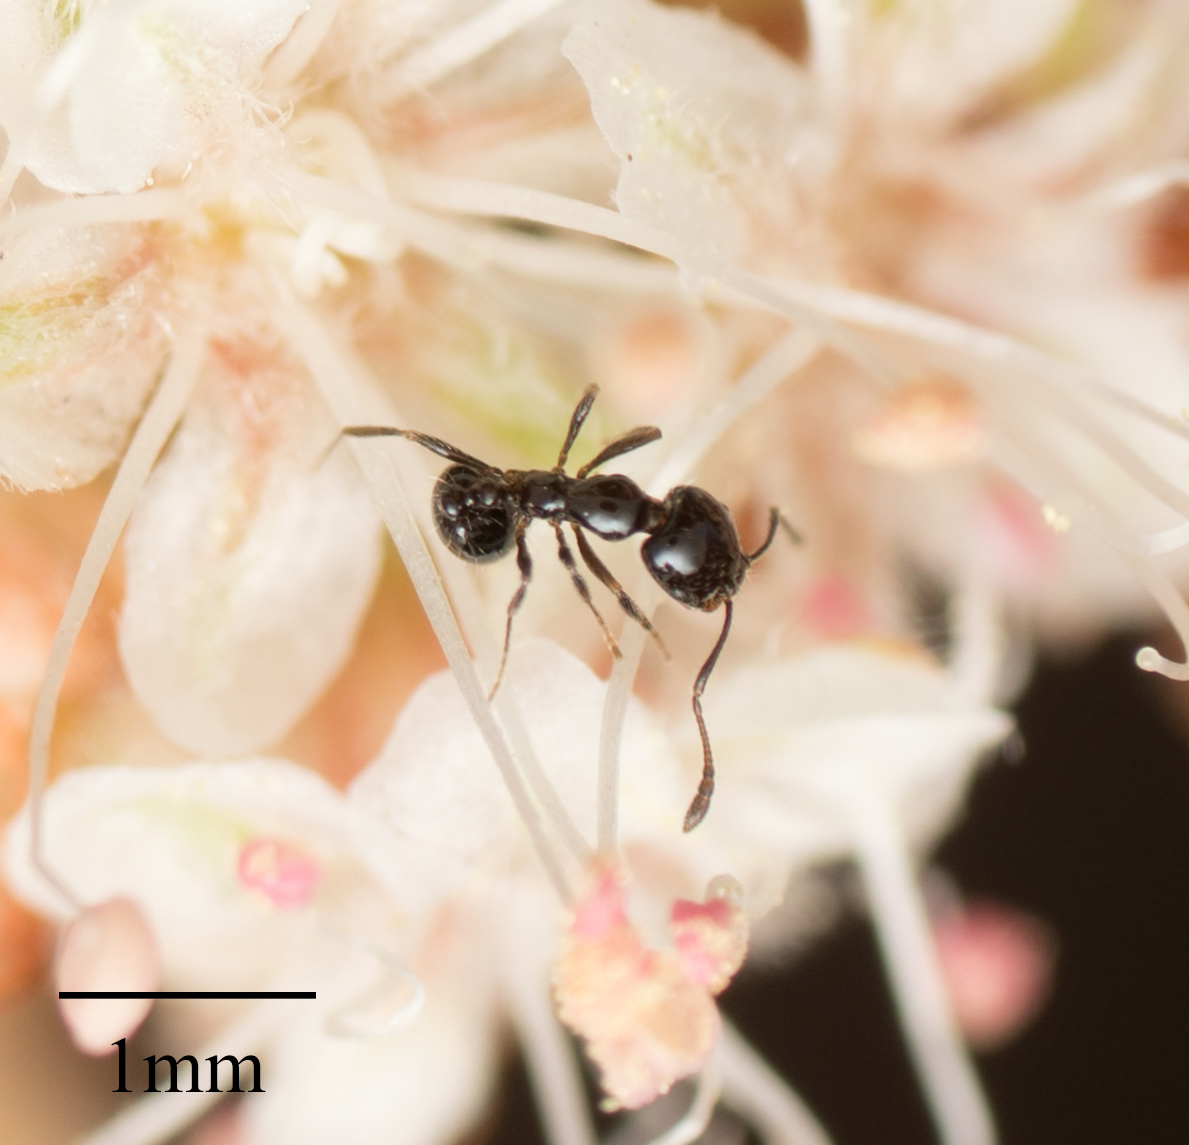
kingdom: Animalia
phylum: Arthropoda
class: Insecta
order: Hymenoptera
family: Formicidae
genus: Monomorium
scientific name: Monomorium ergatogyna
